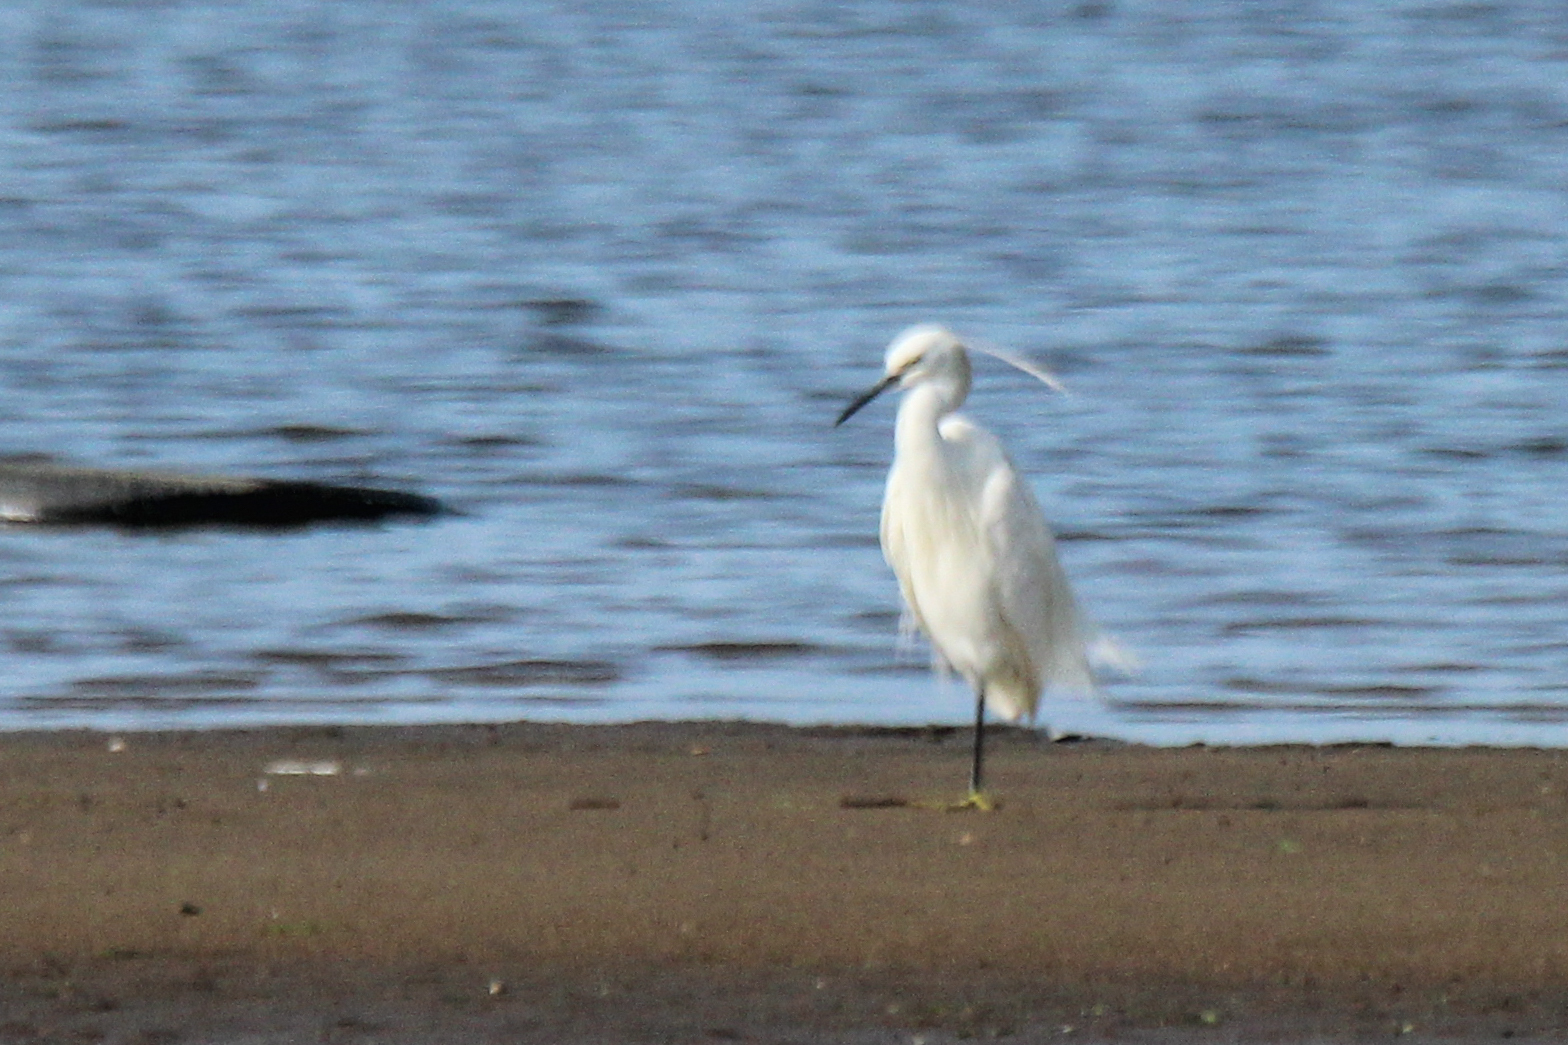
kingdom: Animalia
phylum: Chordata
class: Aves
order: Pelecaniformes
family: Ardeidae
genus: Egretta
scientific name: Egretta garzetta
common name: Little egret
